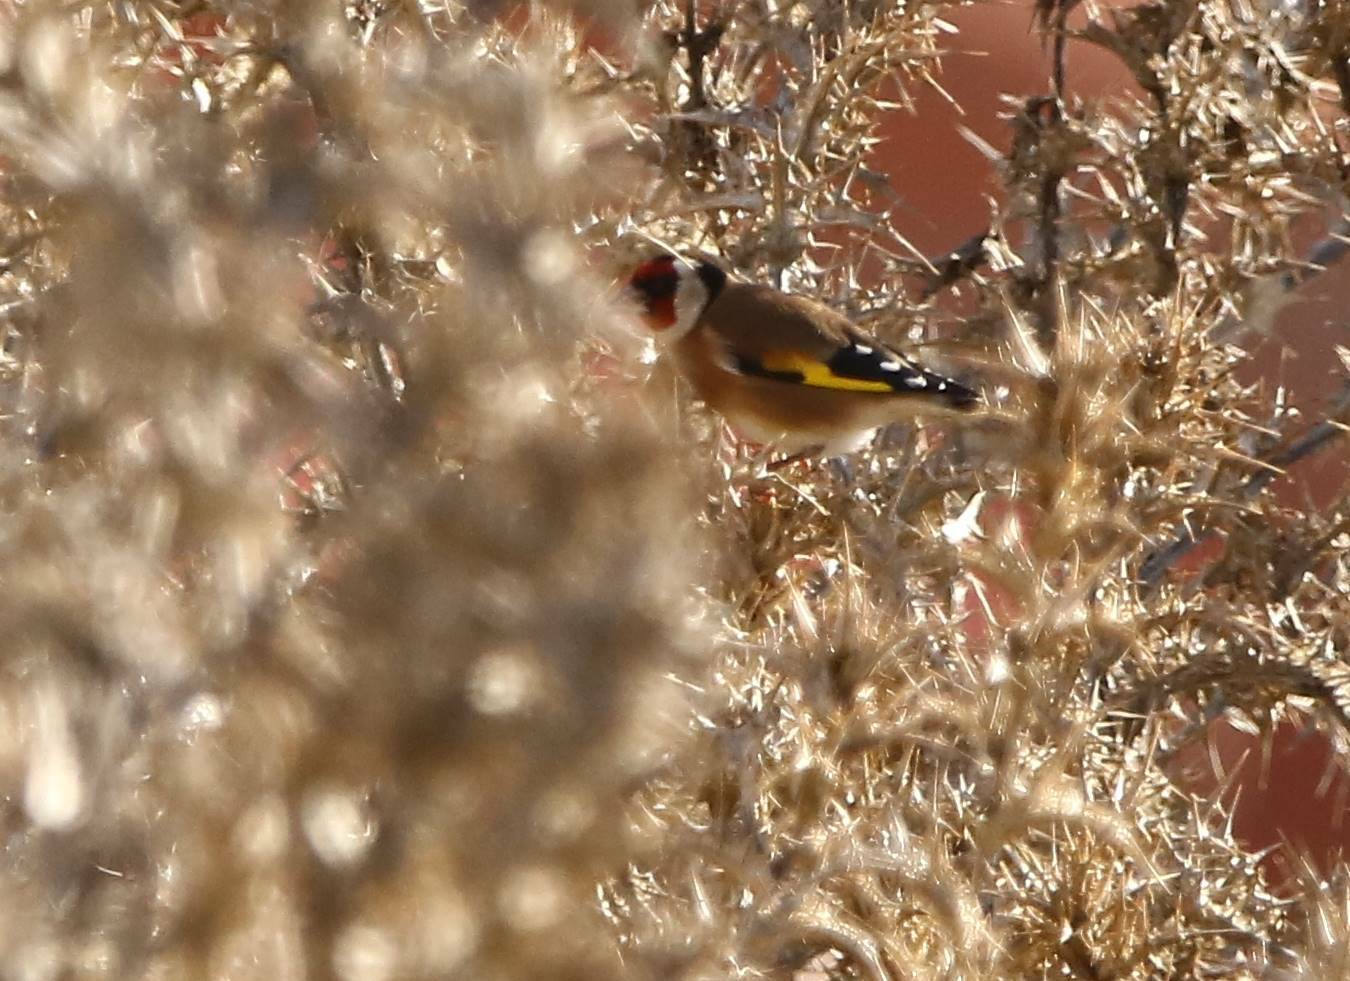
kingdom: Animalia
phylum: Chordata
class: Aves
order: Passeriformes
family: Fringillidae
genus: Carduelis
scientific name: Carduelis carduelis
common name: European goldfinch
